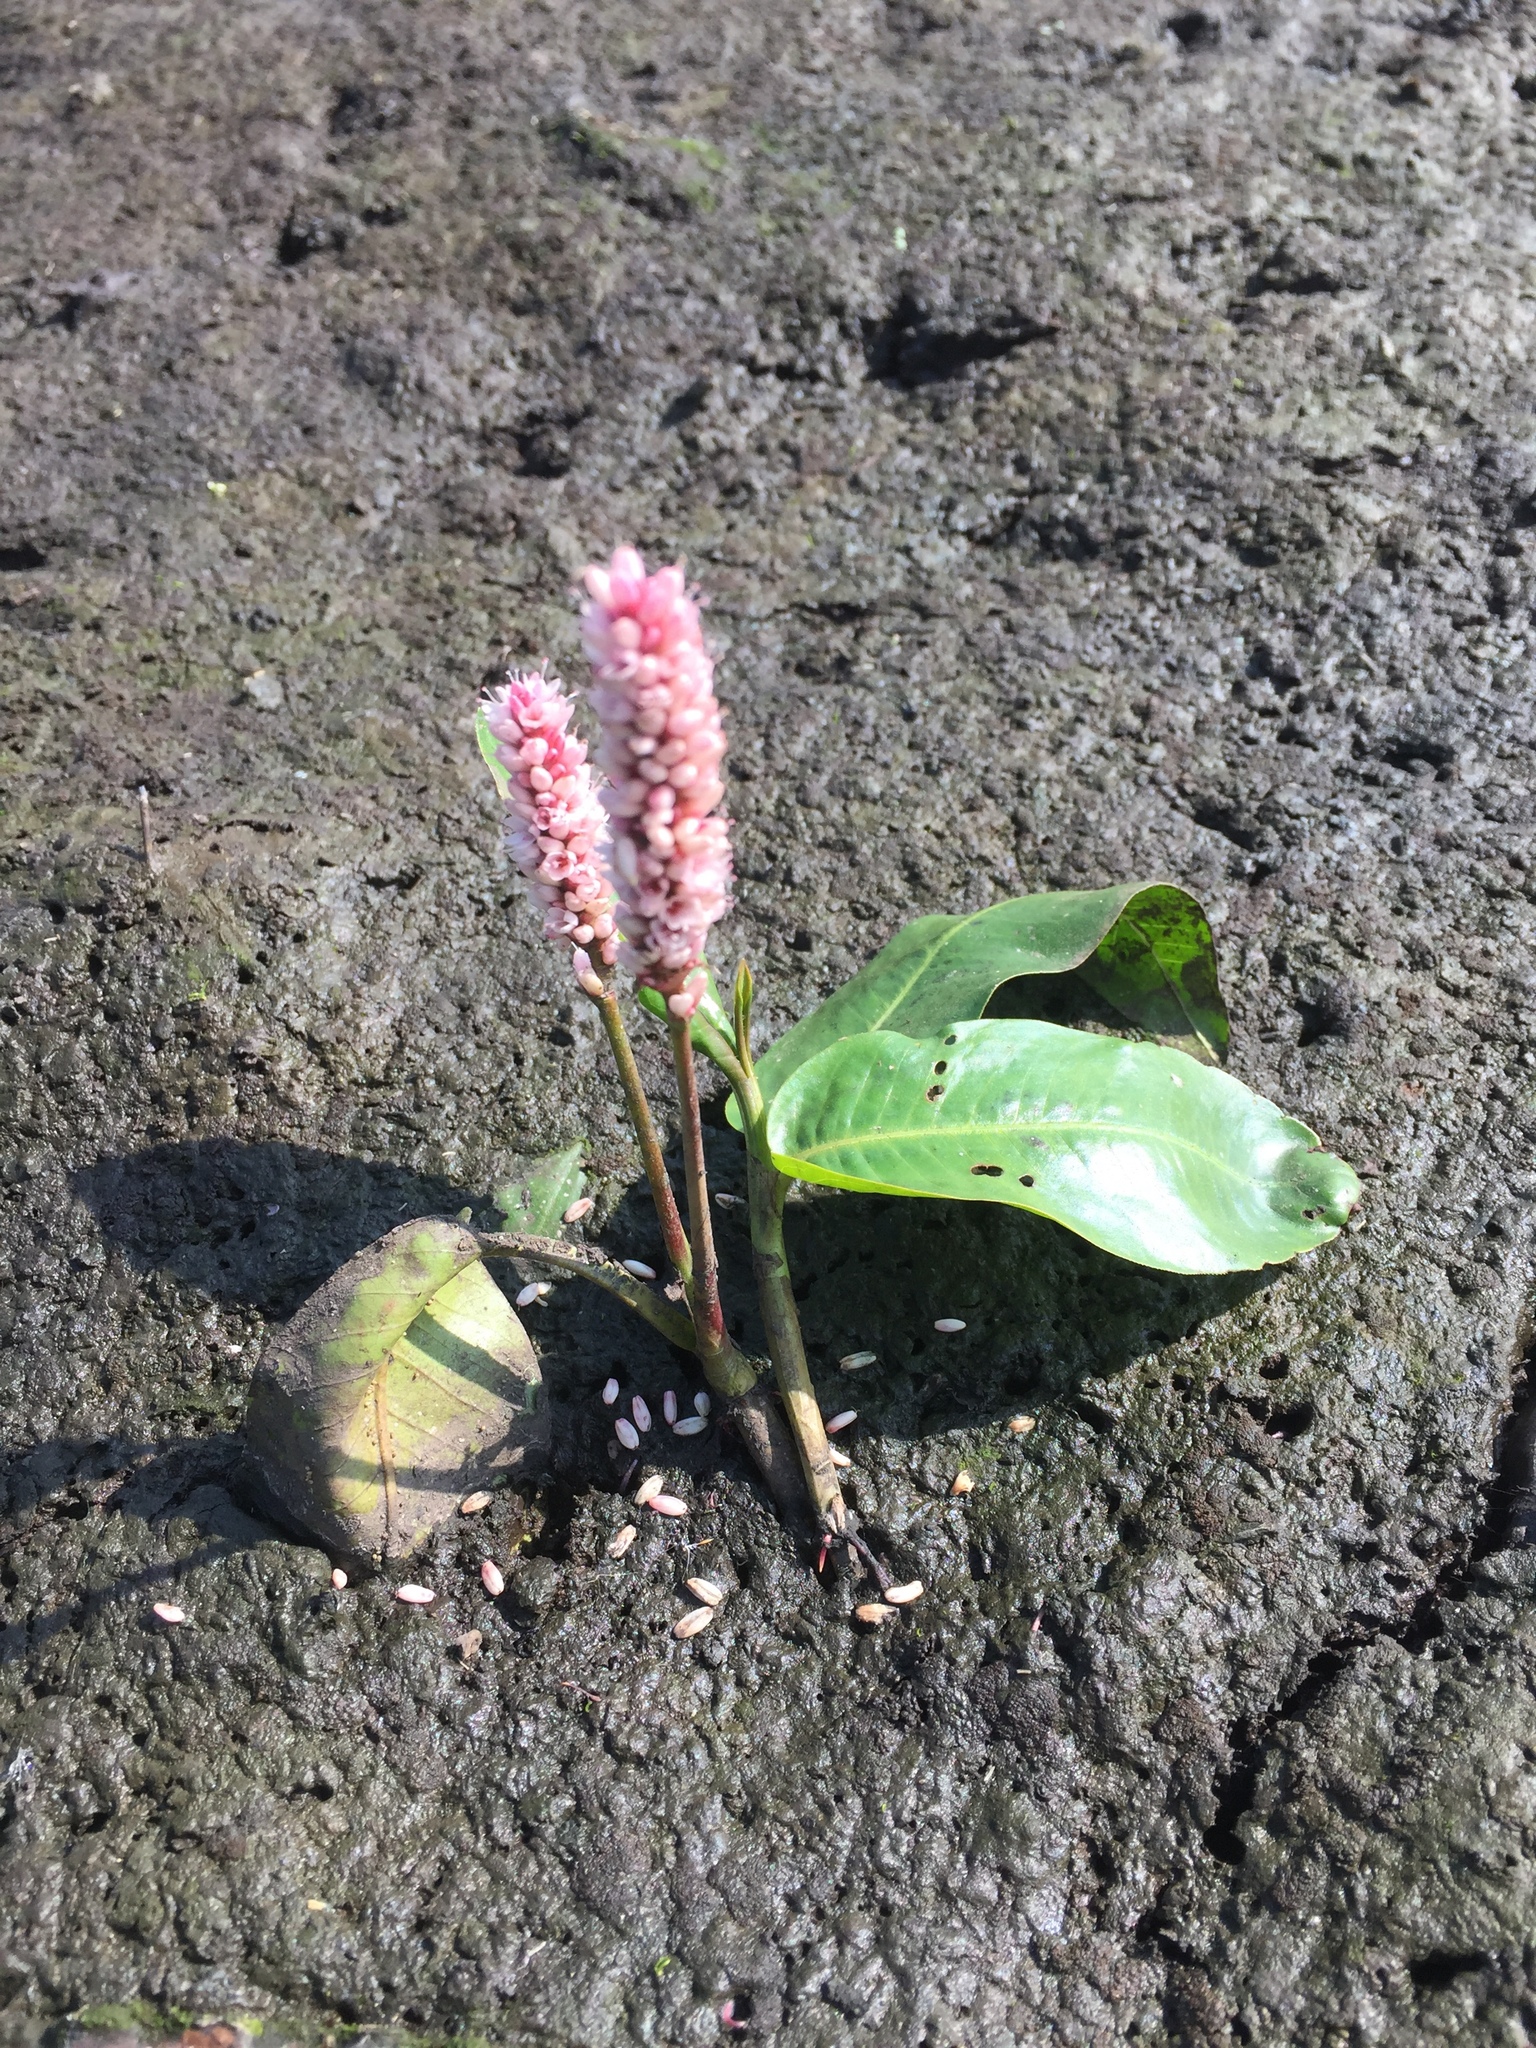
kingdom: Plantae
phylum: Tracheophyta
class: Magnoliopsida
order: Caryophyllales
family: Polygonaceae
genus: Persicaria
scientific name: Persicaria amphibia
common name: Amphibious bistort
